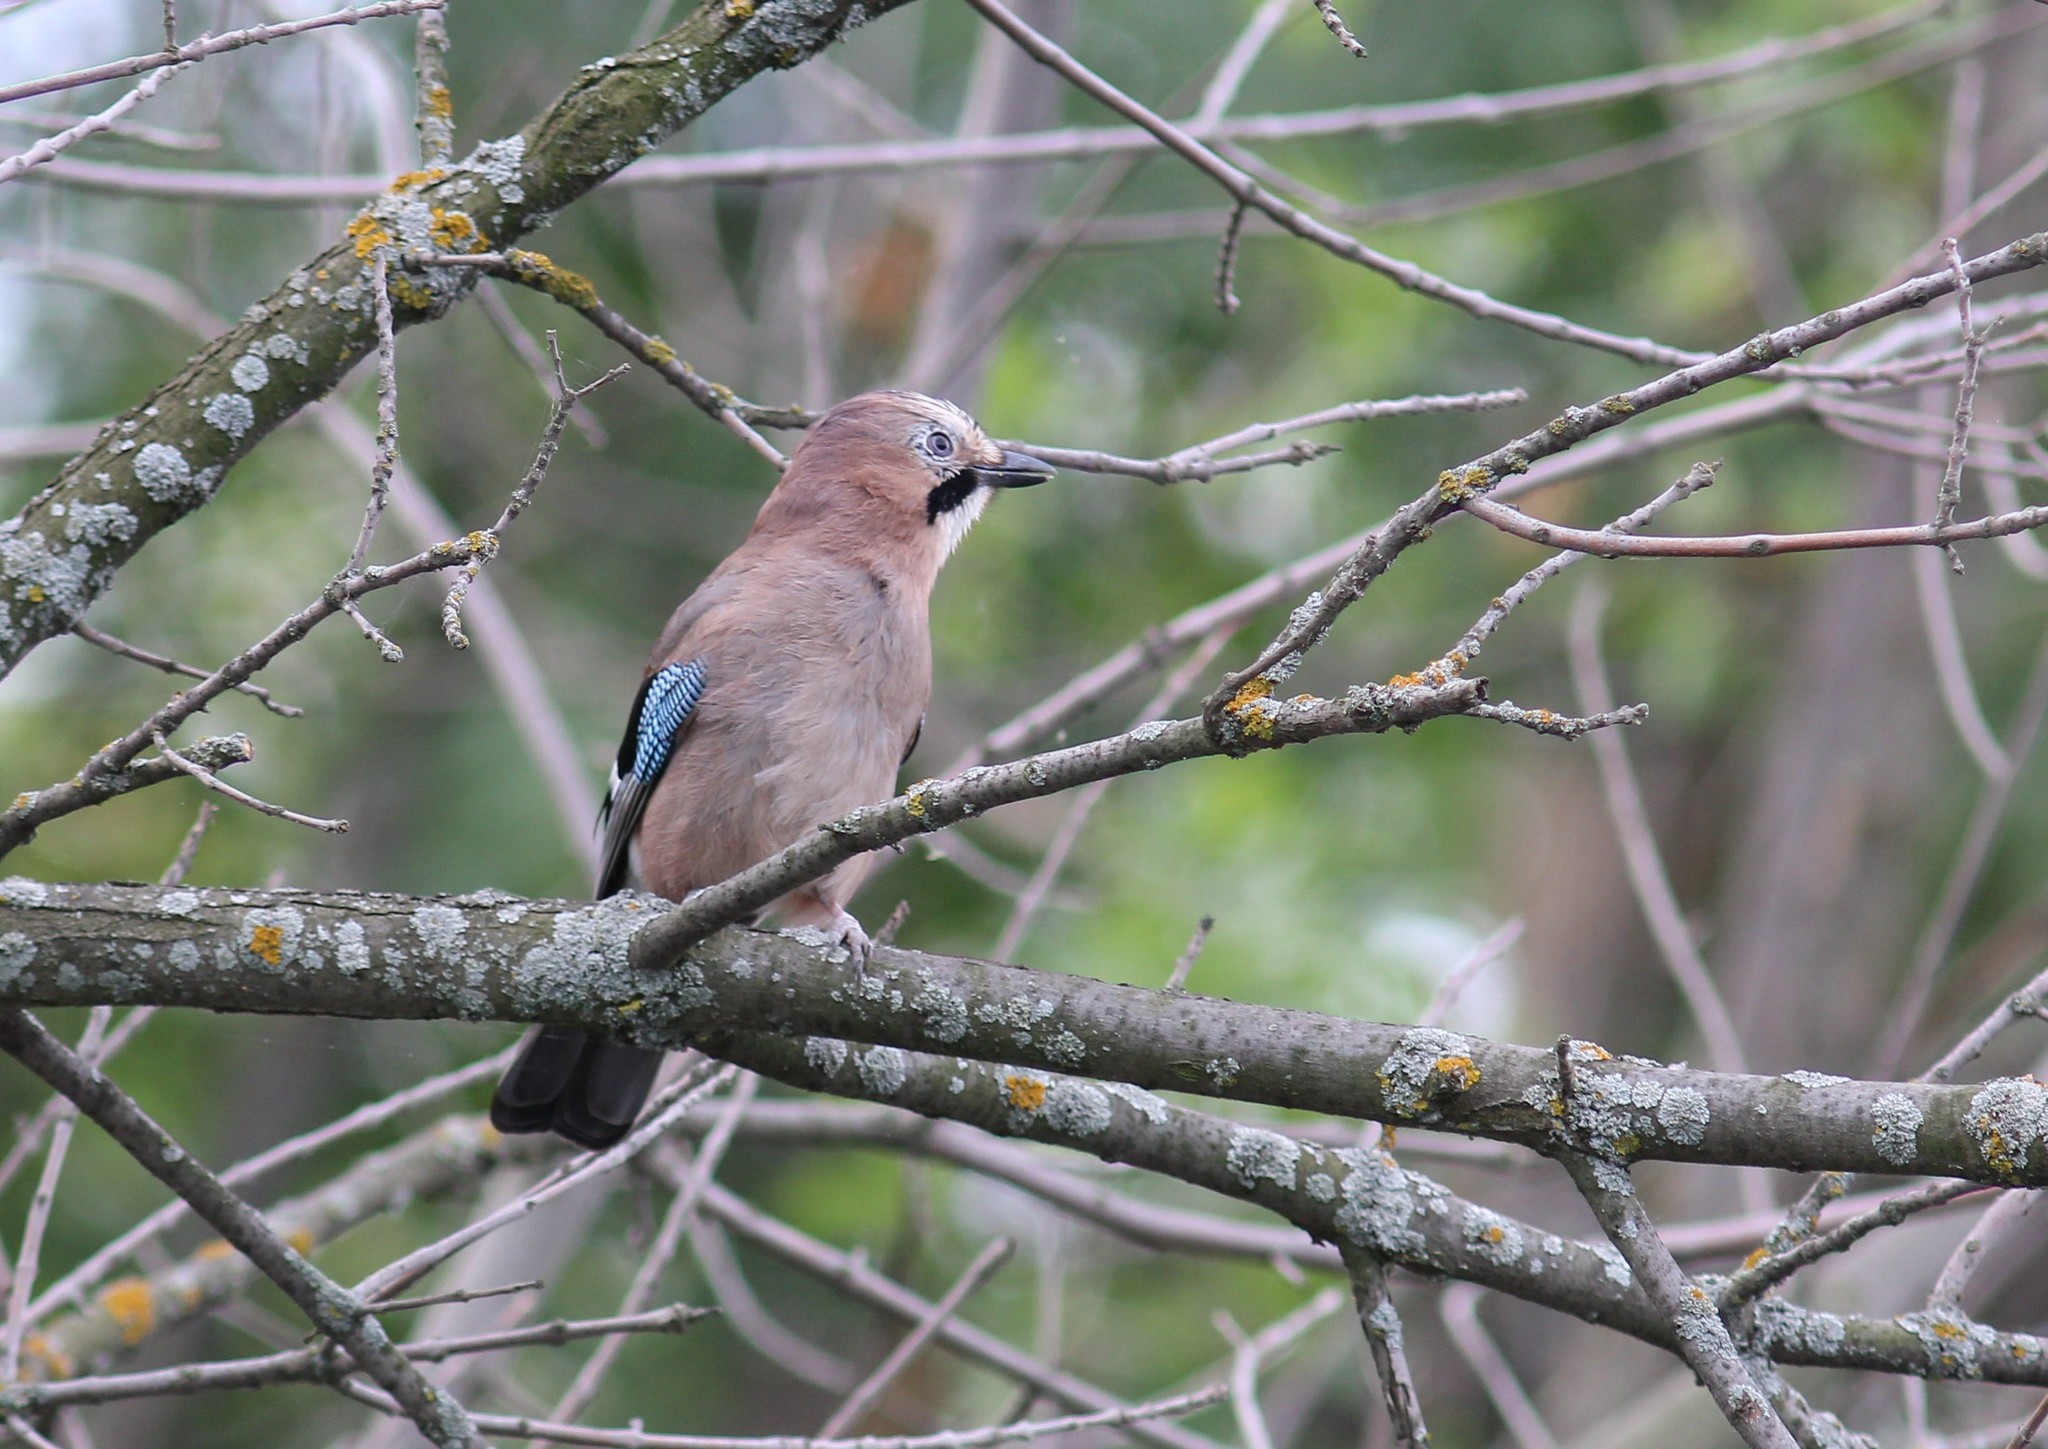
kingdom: Animalia
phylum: Chordata
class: Aves
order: Passeriformes
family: Corvidae
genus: Garrulus
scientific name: Garrulus glandarius
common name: Eurasian jay
